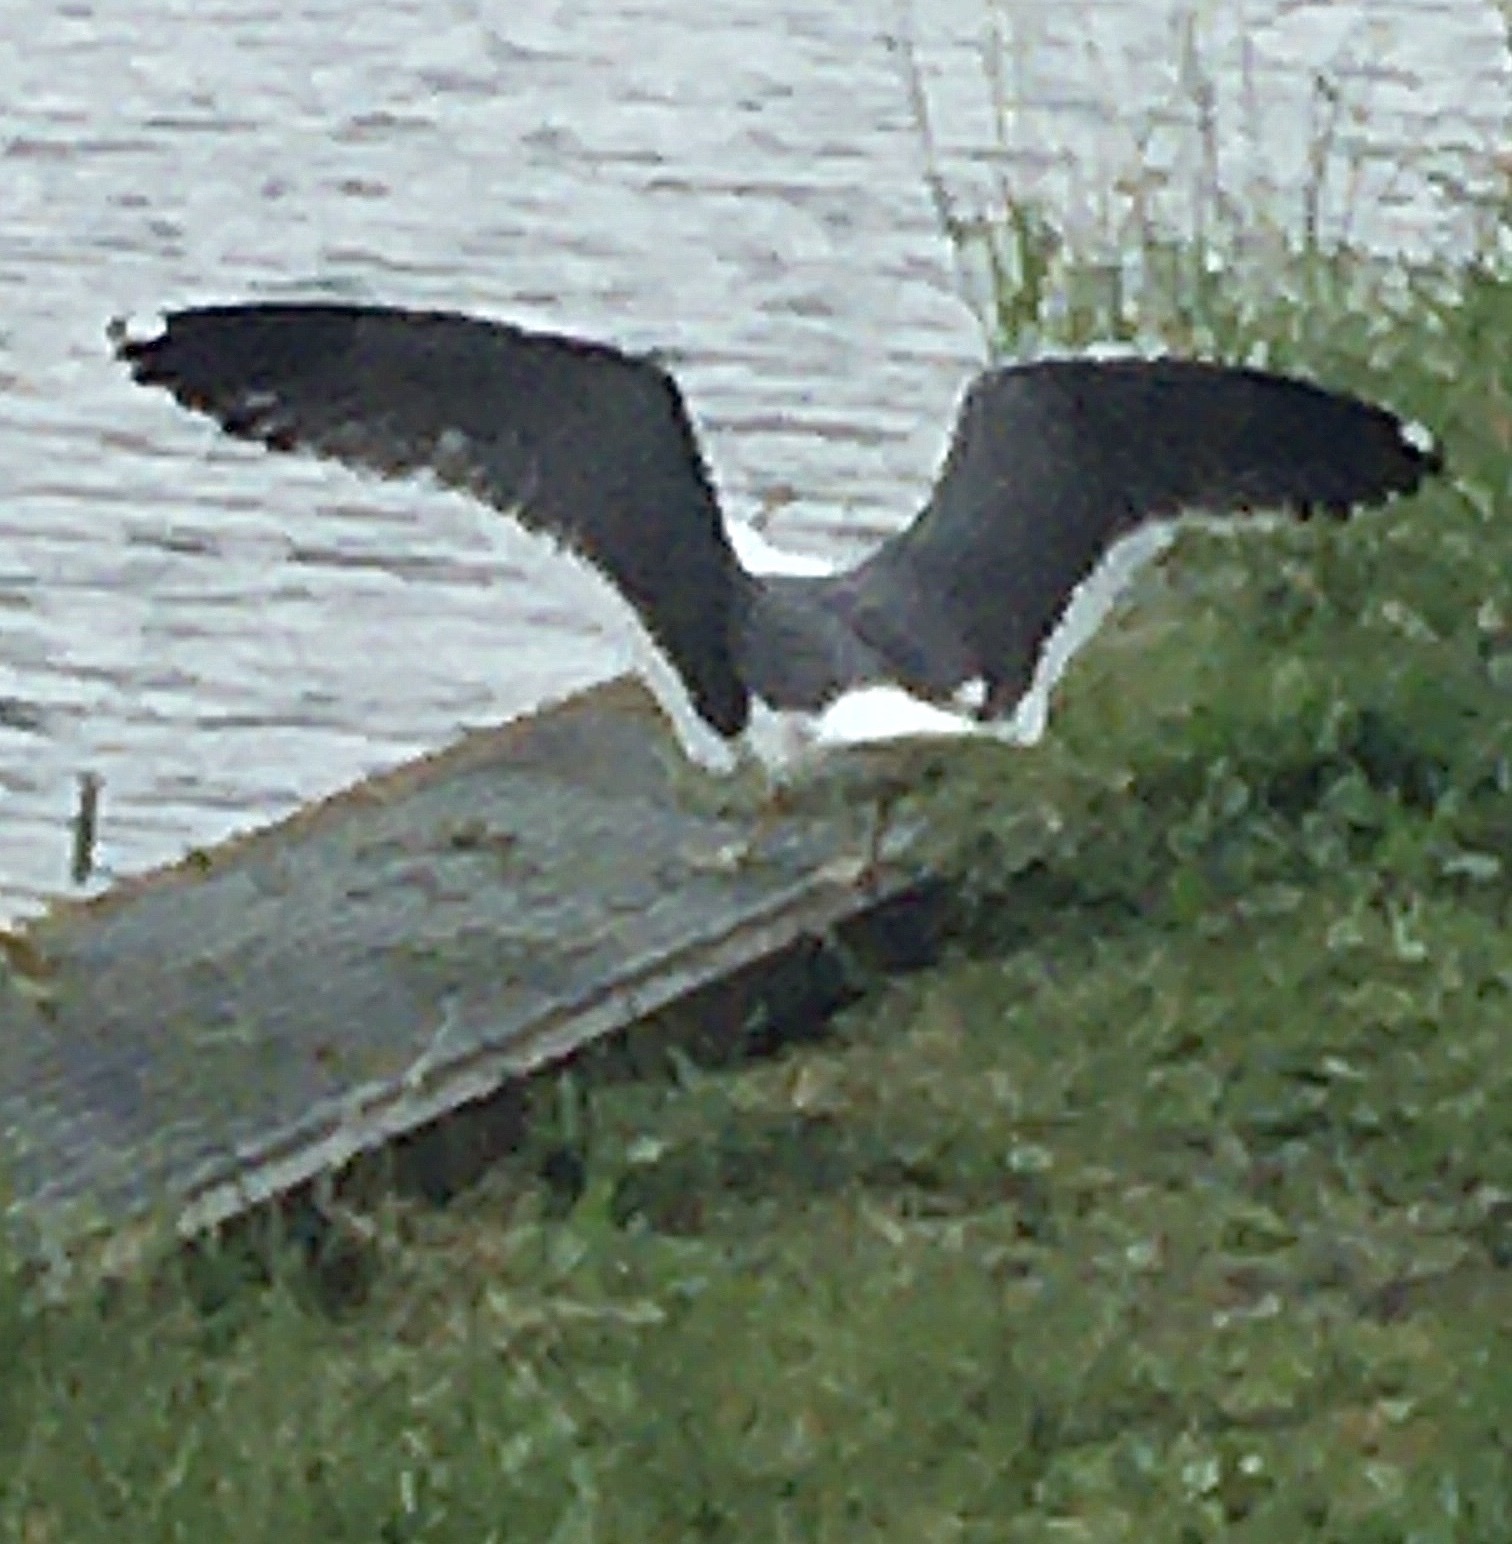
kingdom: Animalia
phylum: Chordata
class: Aves
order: Charadriiformes
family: Laridae
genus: Larus
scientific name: Larus marinus
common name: Great black-backed gull
